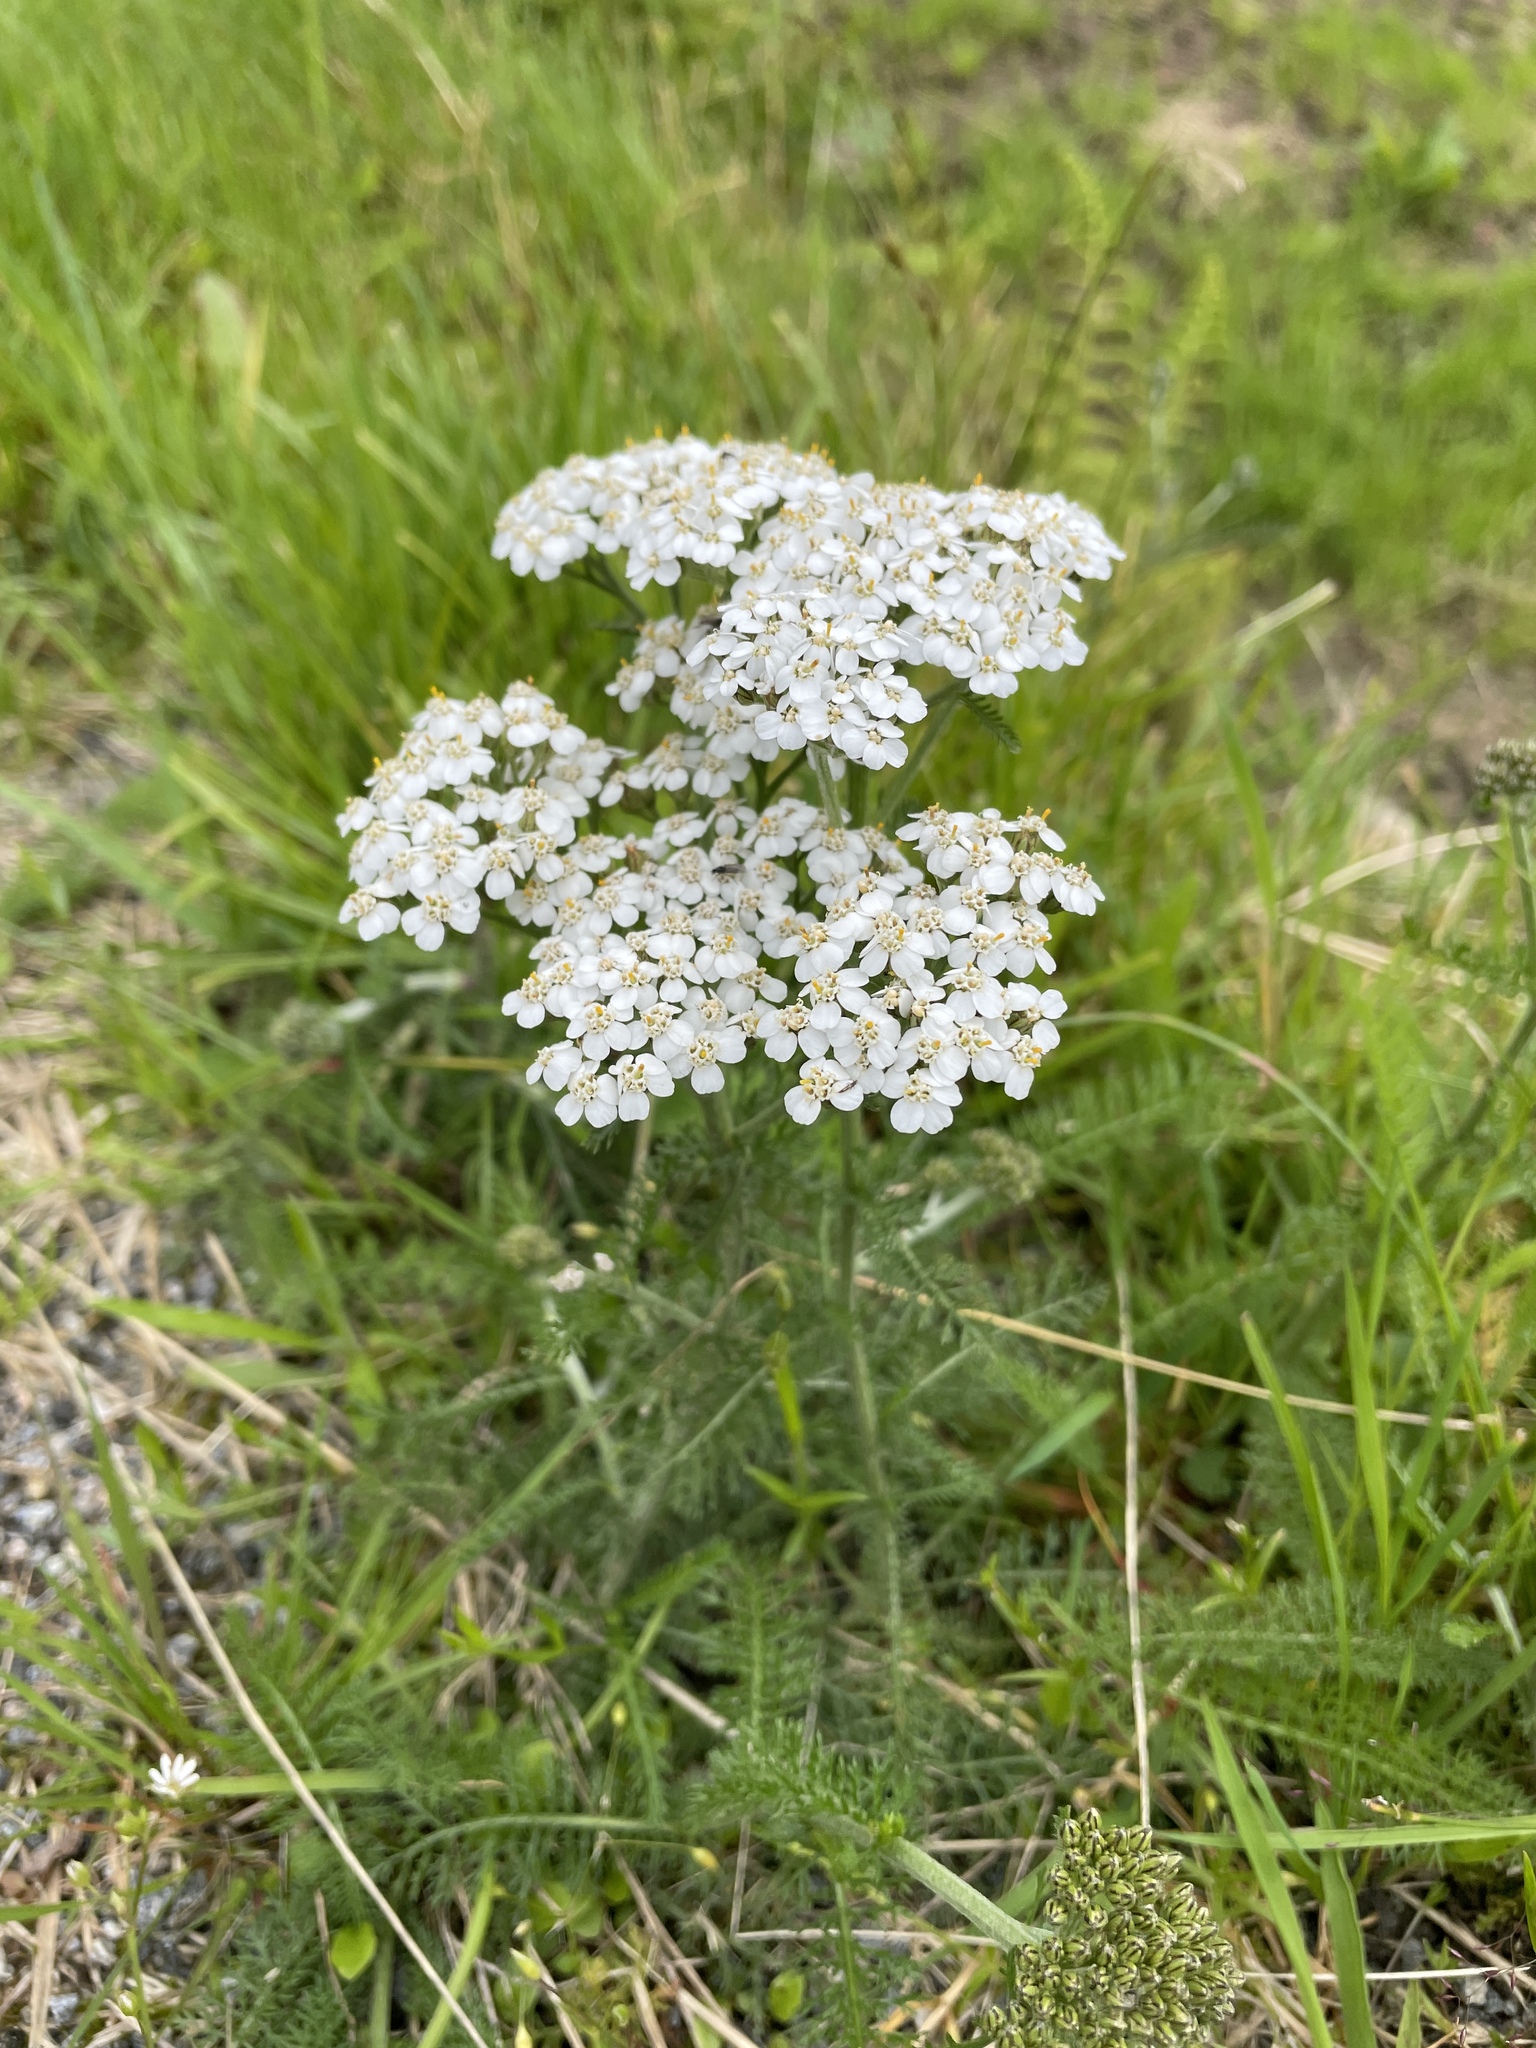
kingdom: Plantae
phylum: Tracheophyta
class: Magnoliopsida
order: Asterales
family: Asteraceae
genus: Achillea
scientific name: Achillea millefolium
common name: Yarrow
